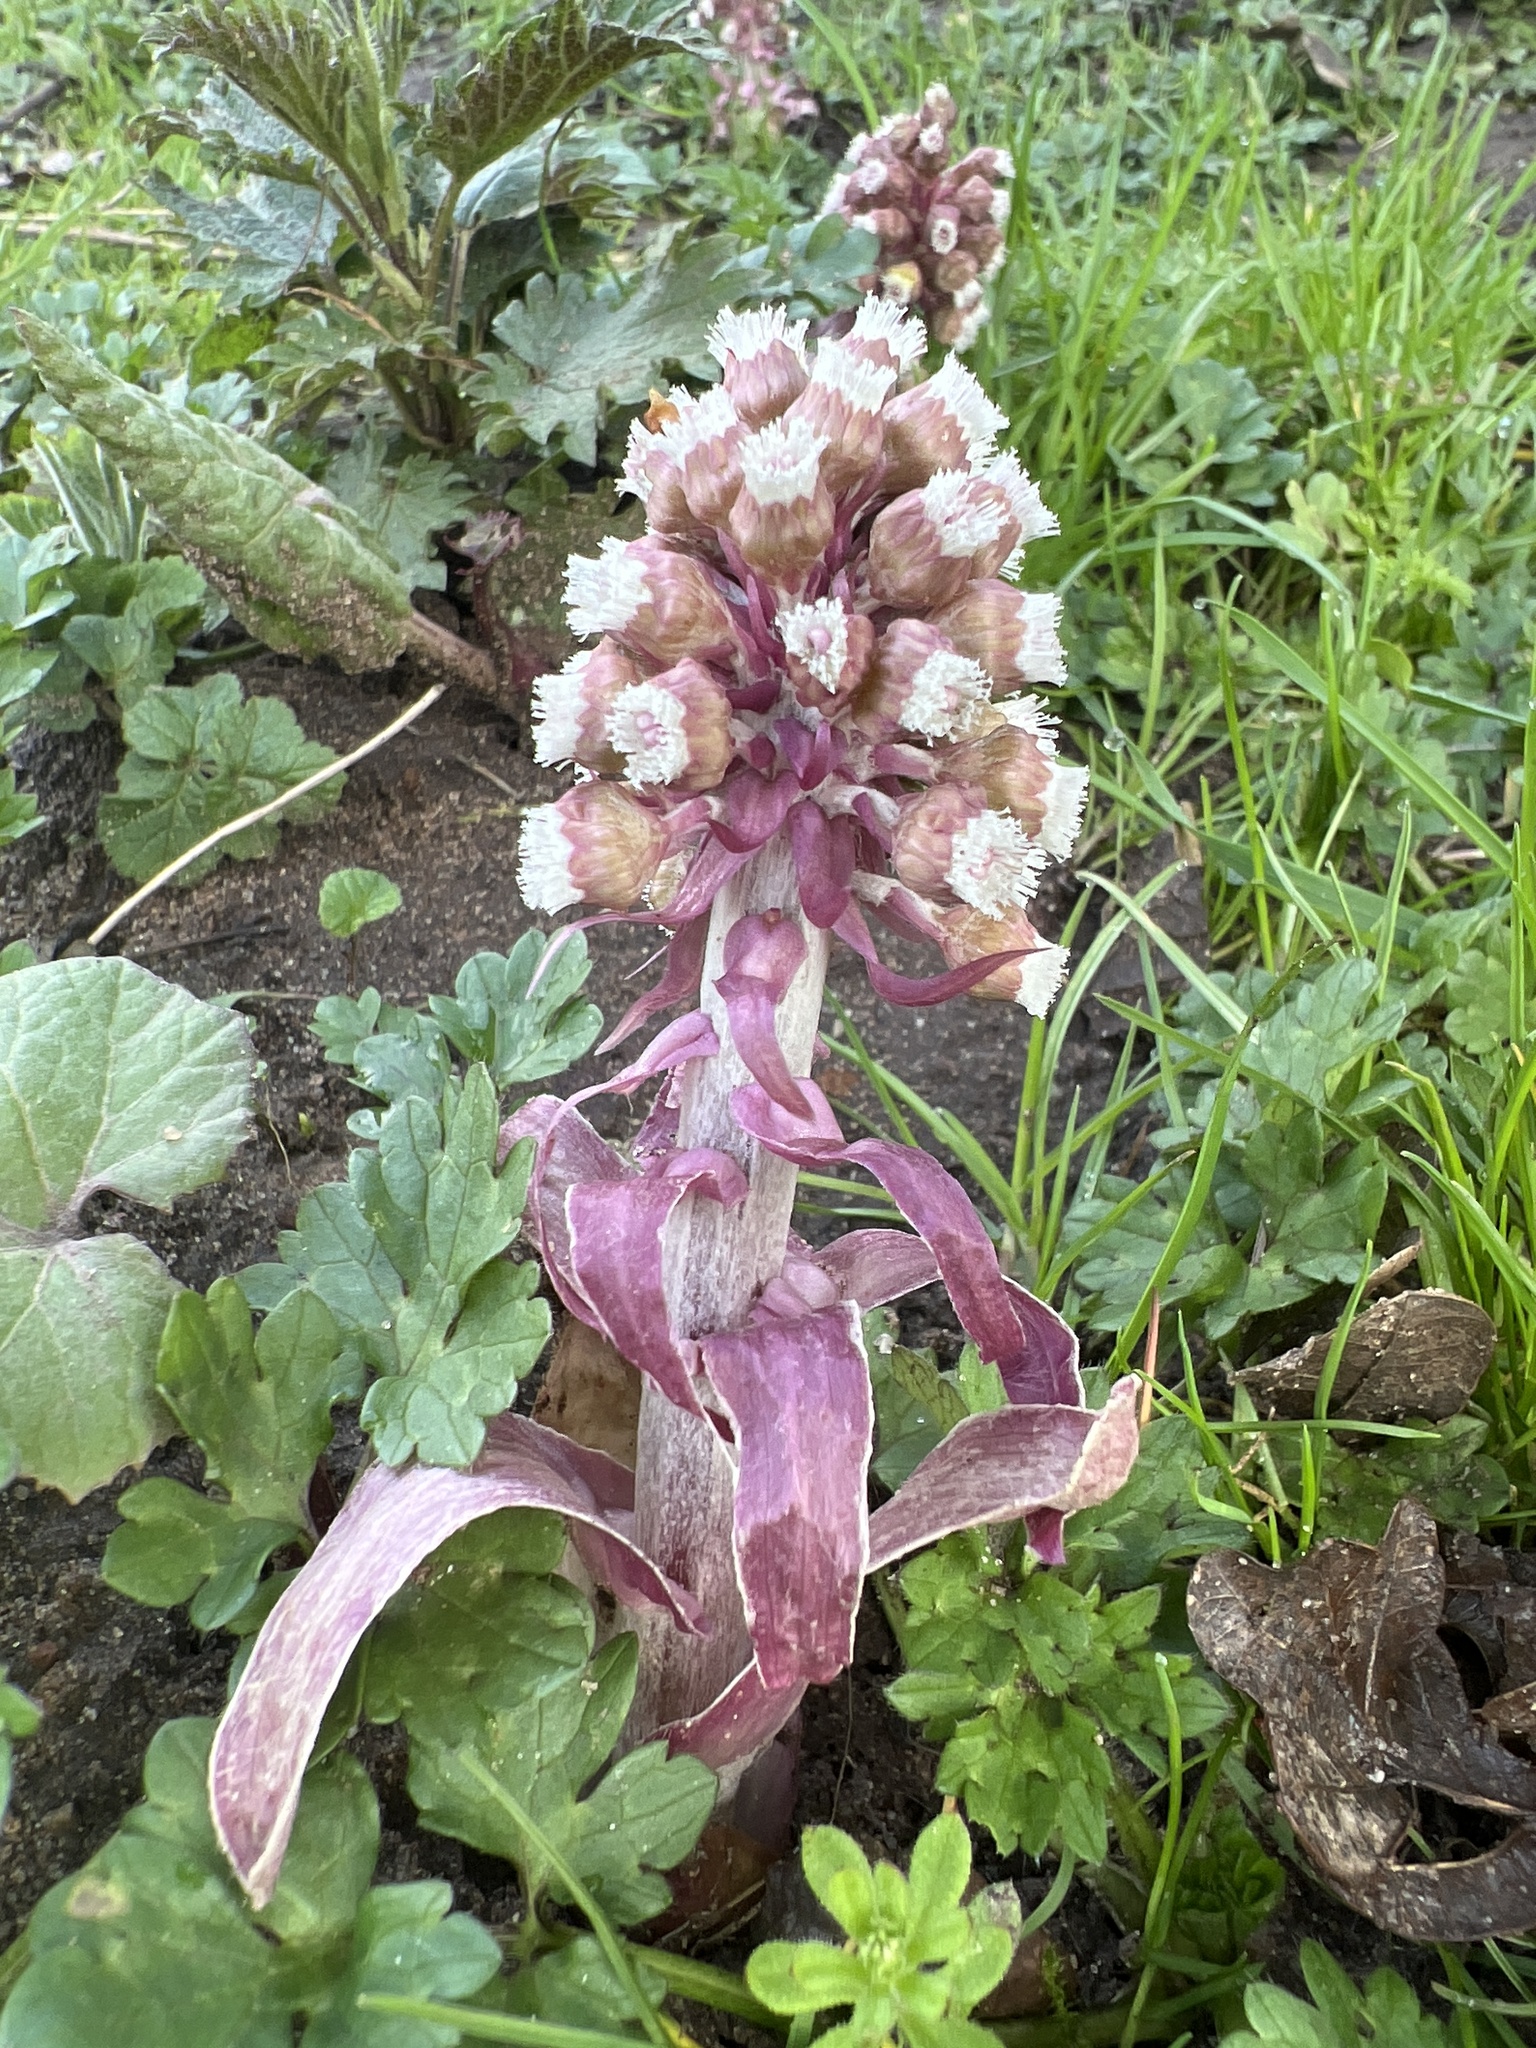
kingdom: Plantae
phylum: Tracheophyta
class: Magnoliopsida
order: Asterales
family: Asteraceae
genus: Petasites
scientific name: Petasites hybridus
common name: Butterbur
